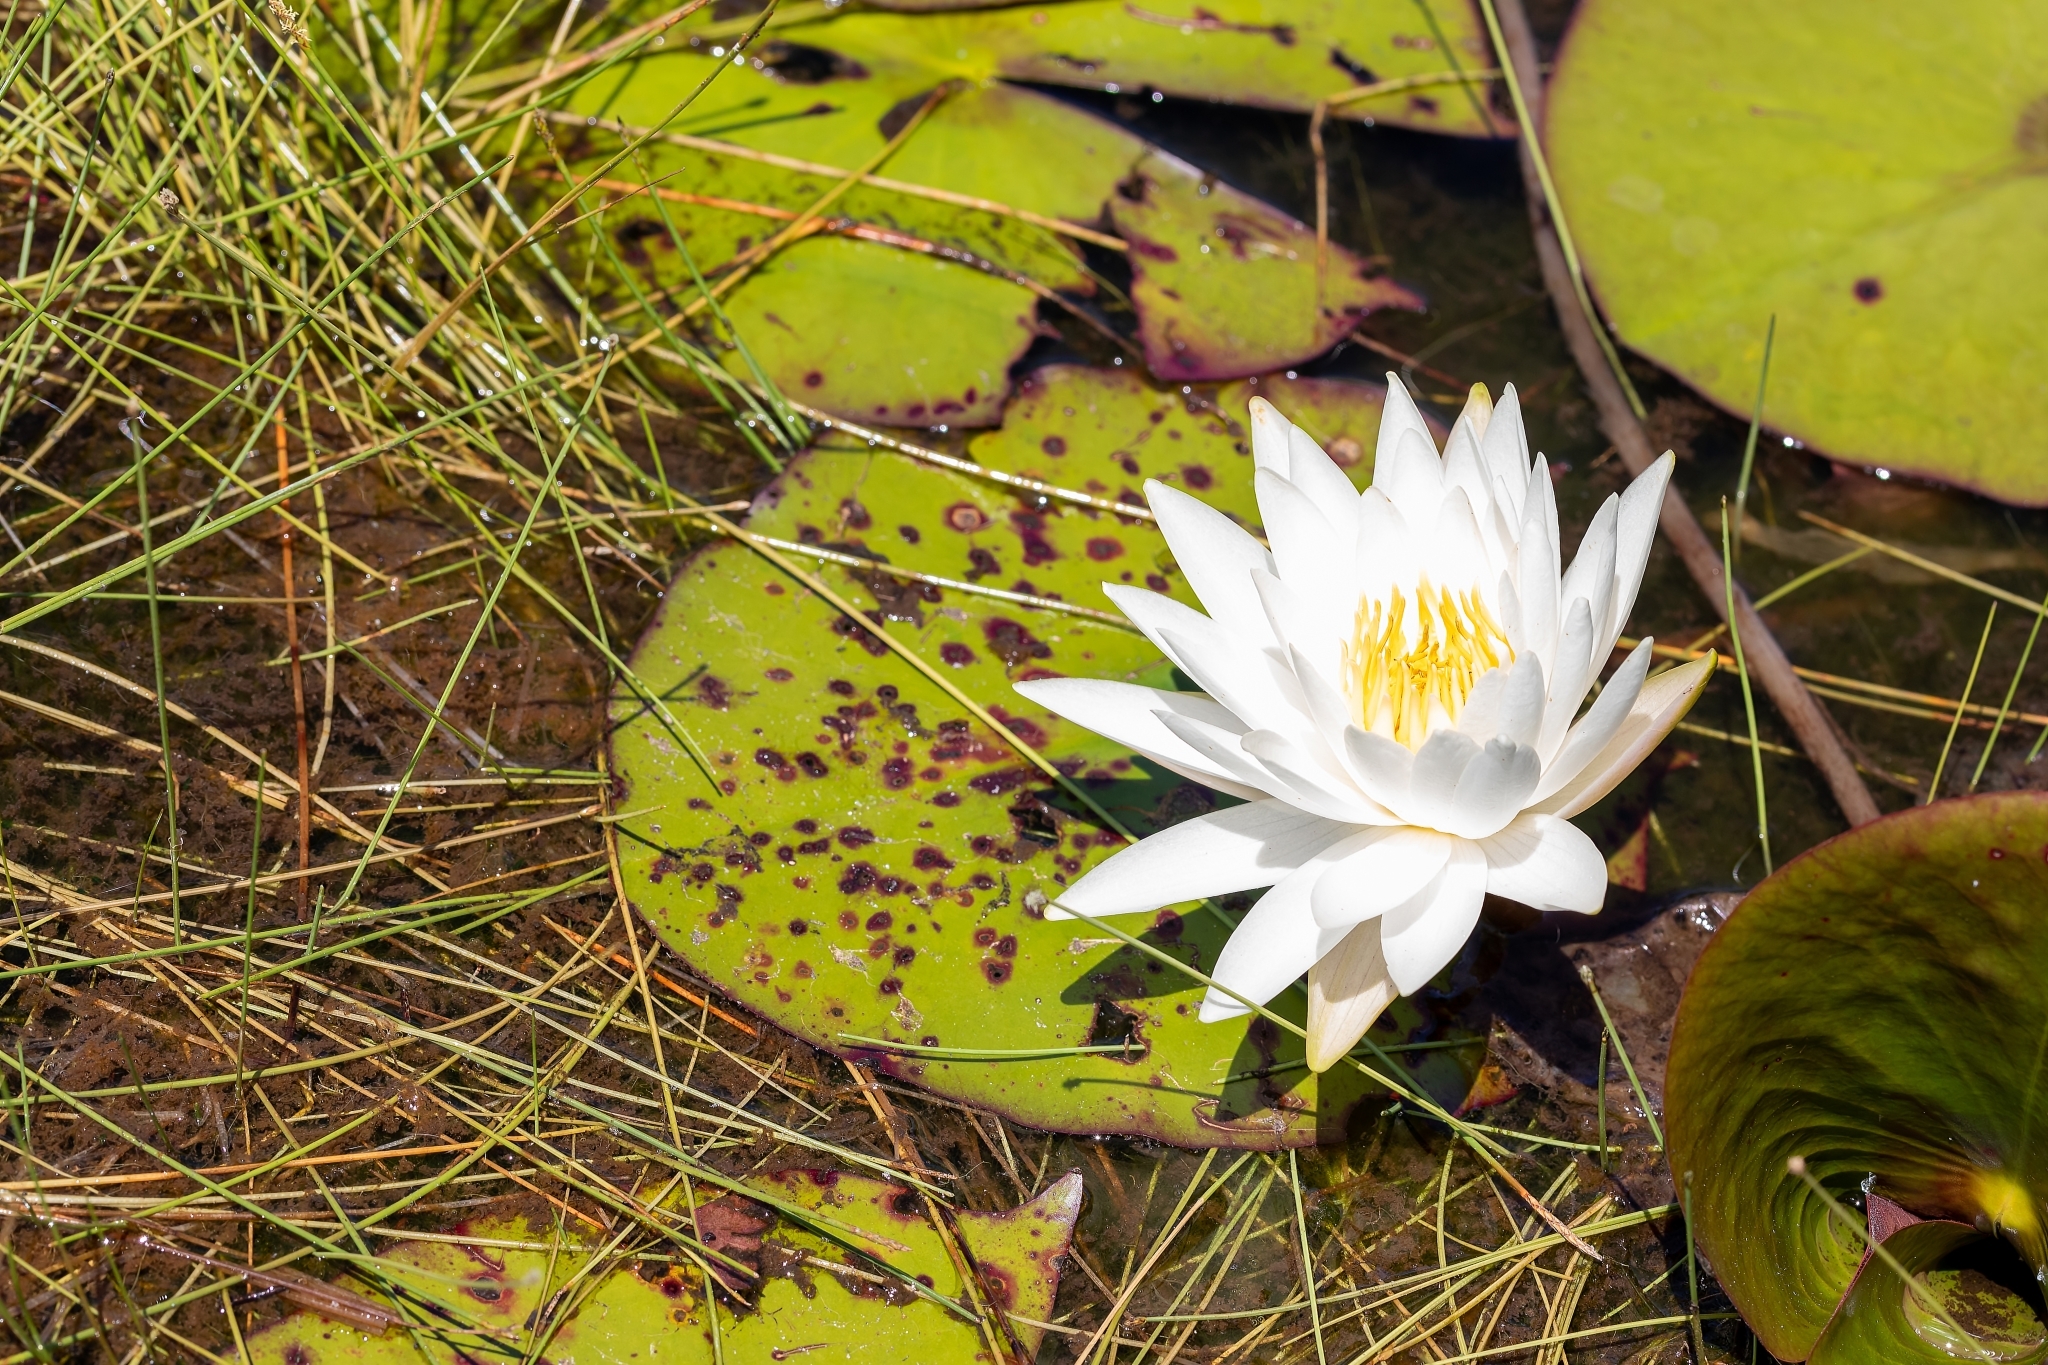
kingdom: Plantae
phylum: Tracheophyta
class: Magnoliopsida
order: Nymphaeales
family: Nymphaeaceae
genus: Nymphaea
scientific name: Nymphaea odorata
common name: Fragrant water-lily
